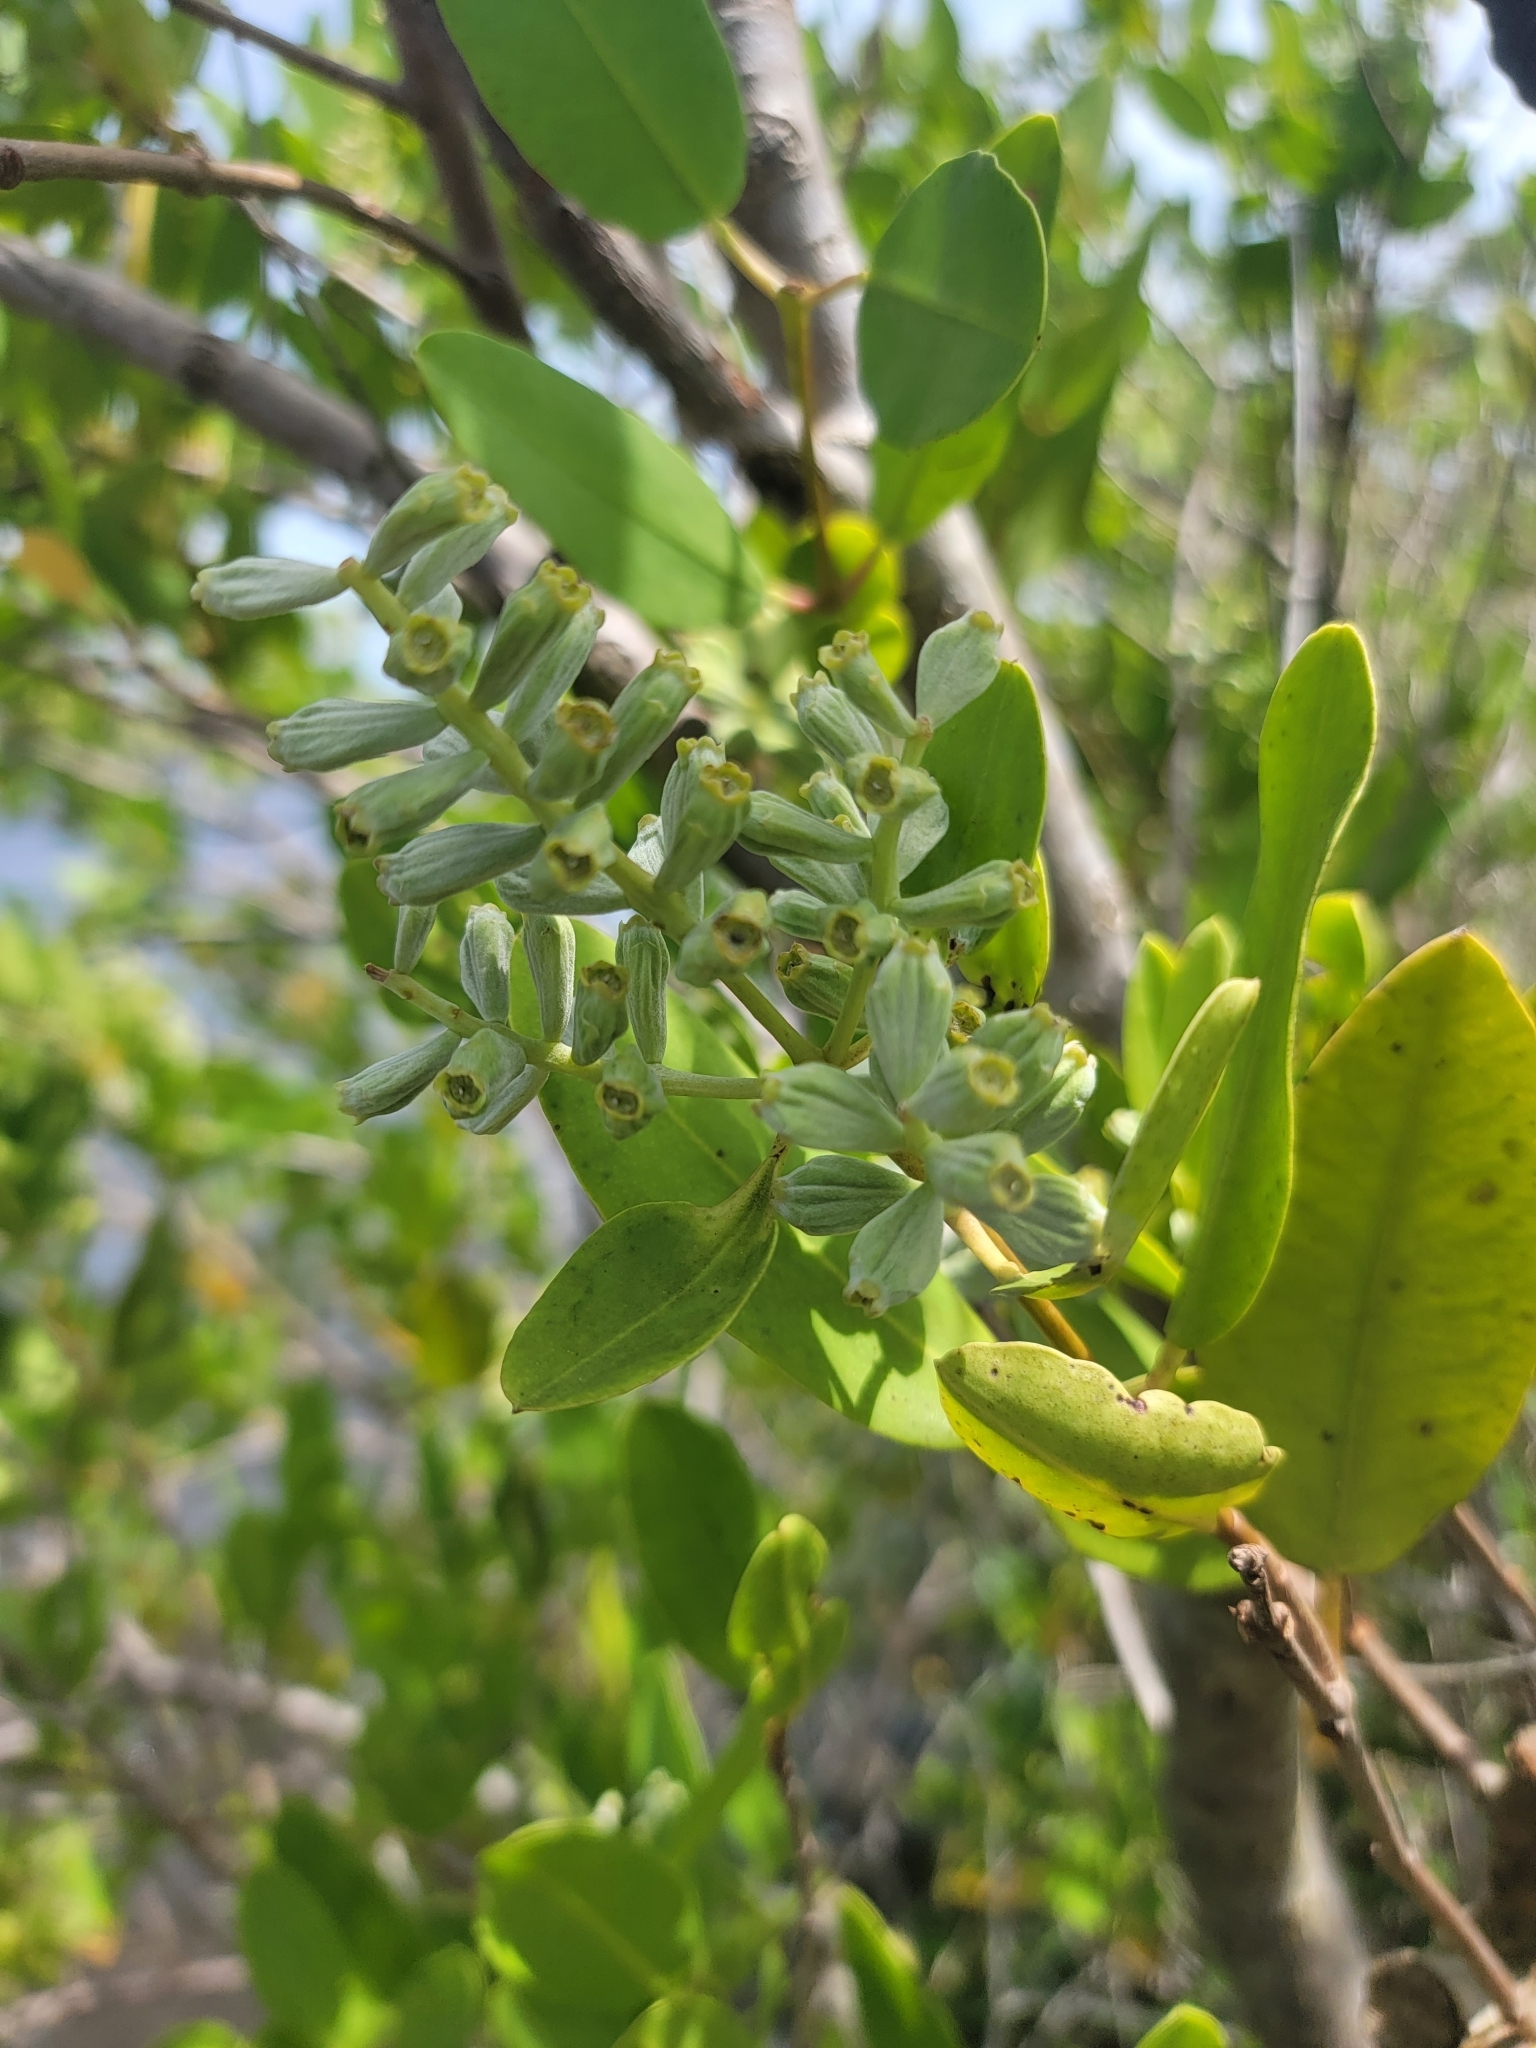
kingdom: Plantae
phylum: Tracheophyta
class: Magnoliopsida
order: Myrtales
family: Combretaceae
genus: Laguncularia
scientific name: Laguncularia racemosa
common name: White mangrove
